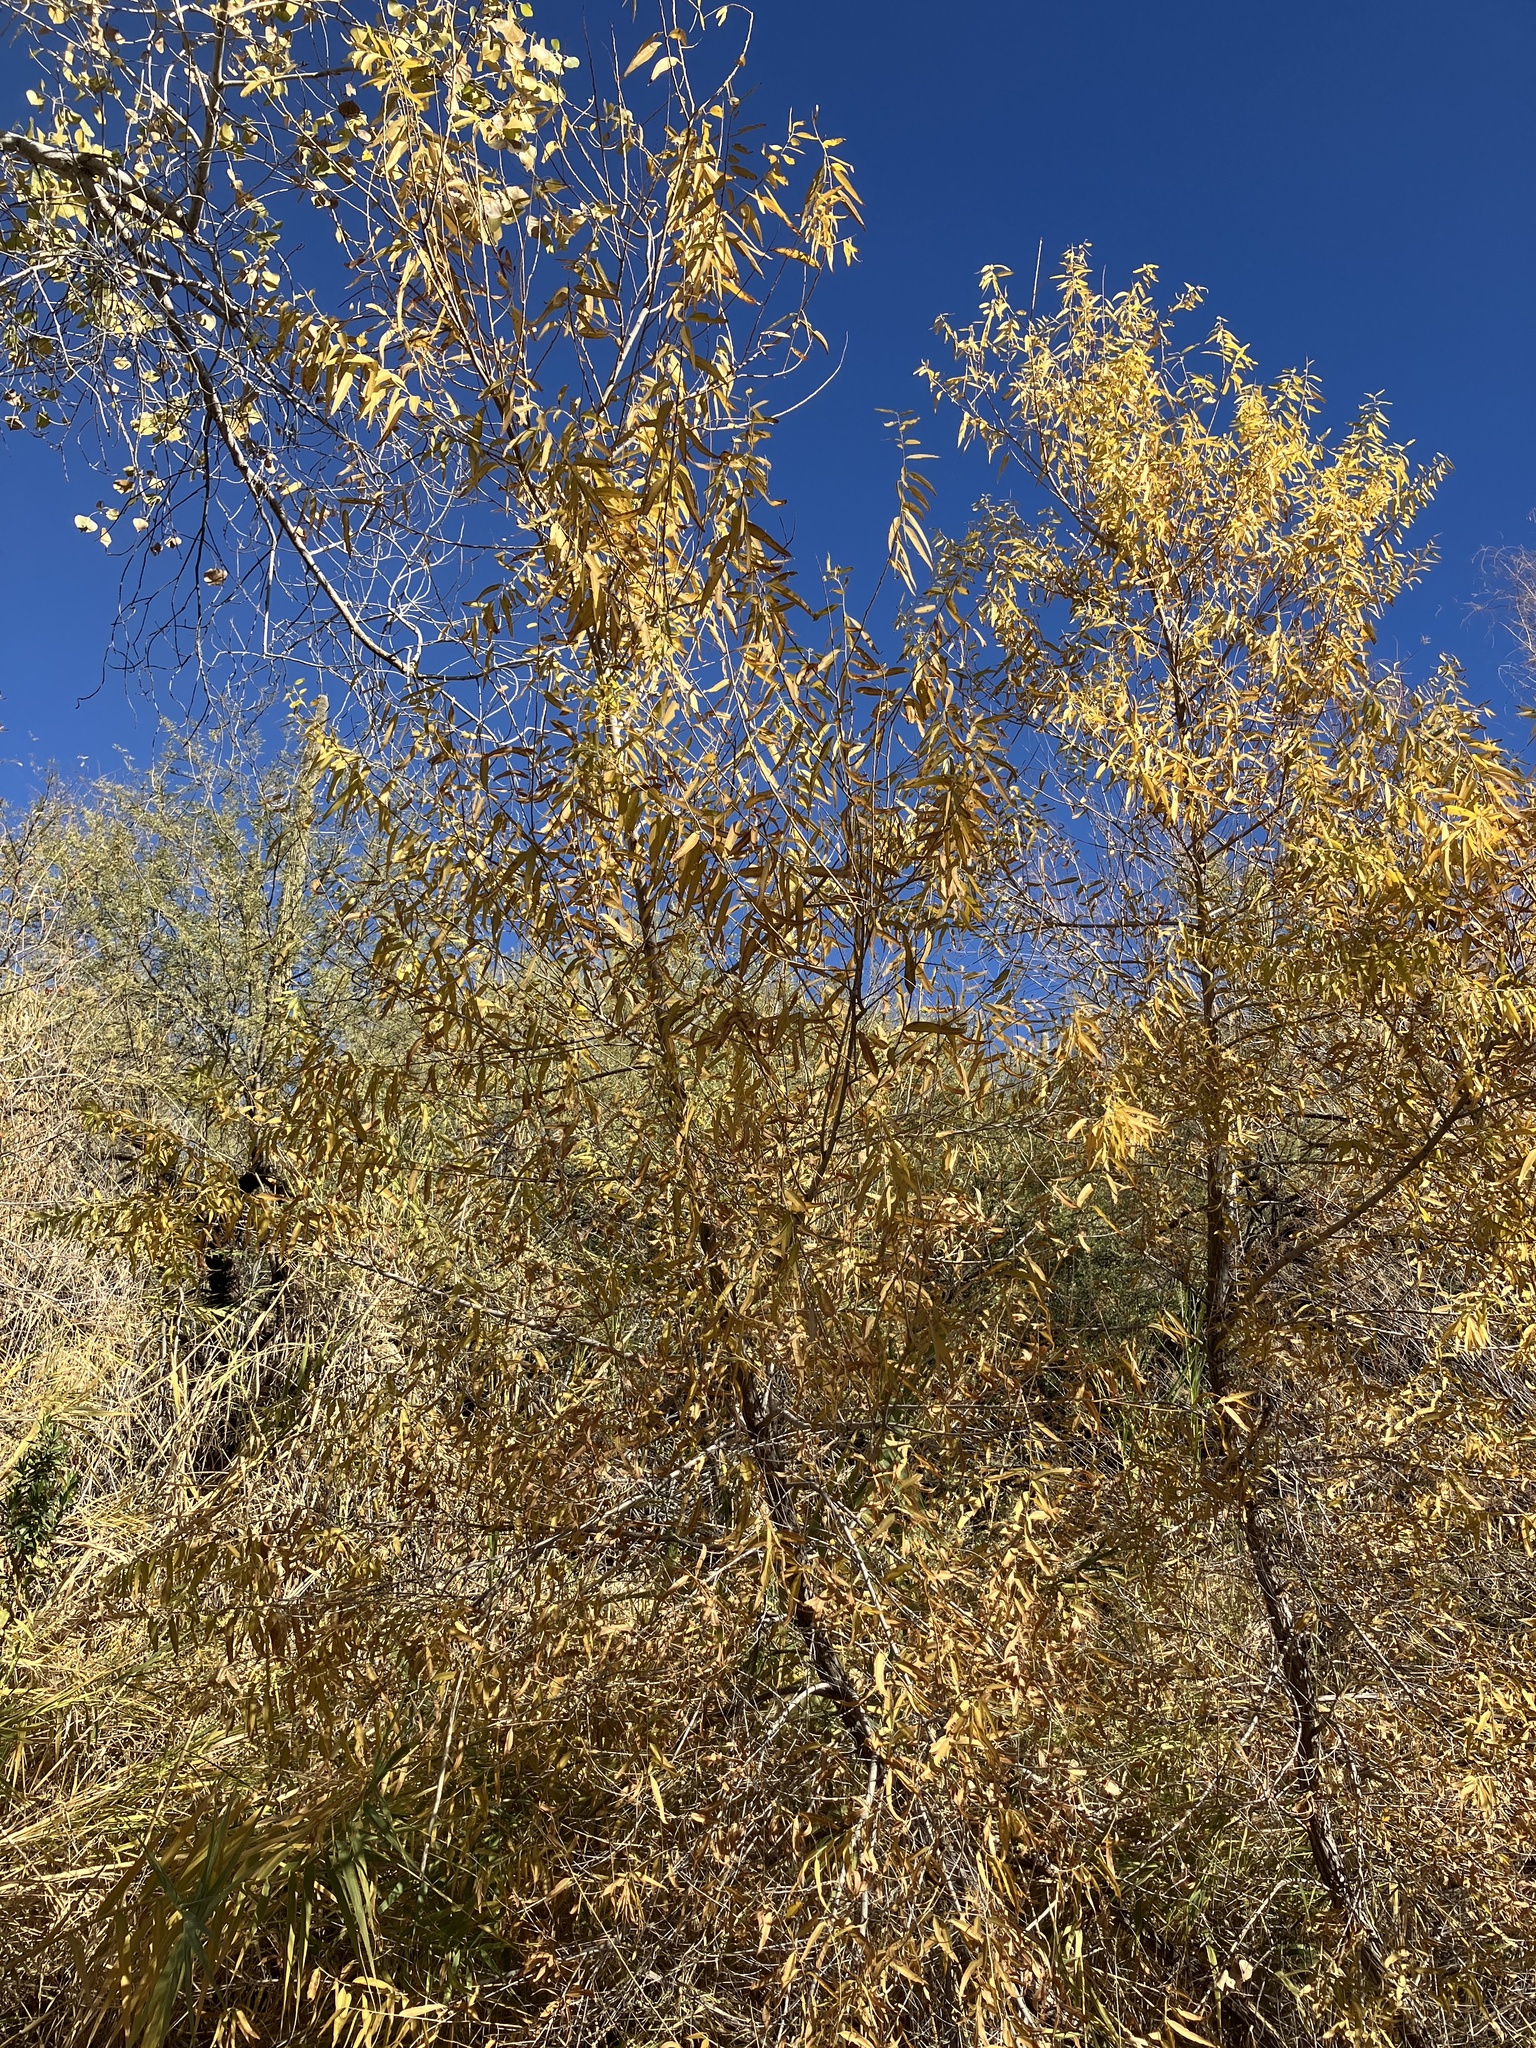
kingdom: Plantae
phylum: Tracheophyta
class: Magnoliopsida
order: Malpighiales
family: Salicaceae
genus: Salix
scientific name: Salix gooddingii
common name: Goodding's willow
